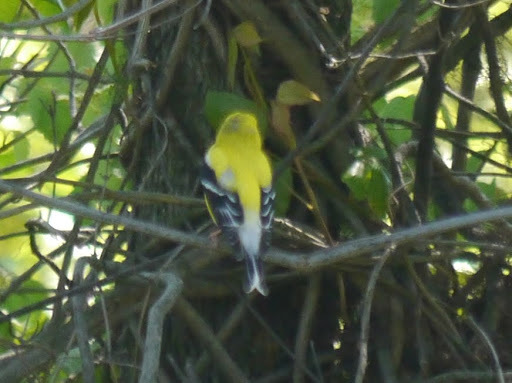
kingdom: Animalia
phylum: Chordata
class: Aves
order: Passeriformes
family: Fringillidae
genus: Spinus
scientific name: Spinus tristis
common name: American goldfinch
